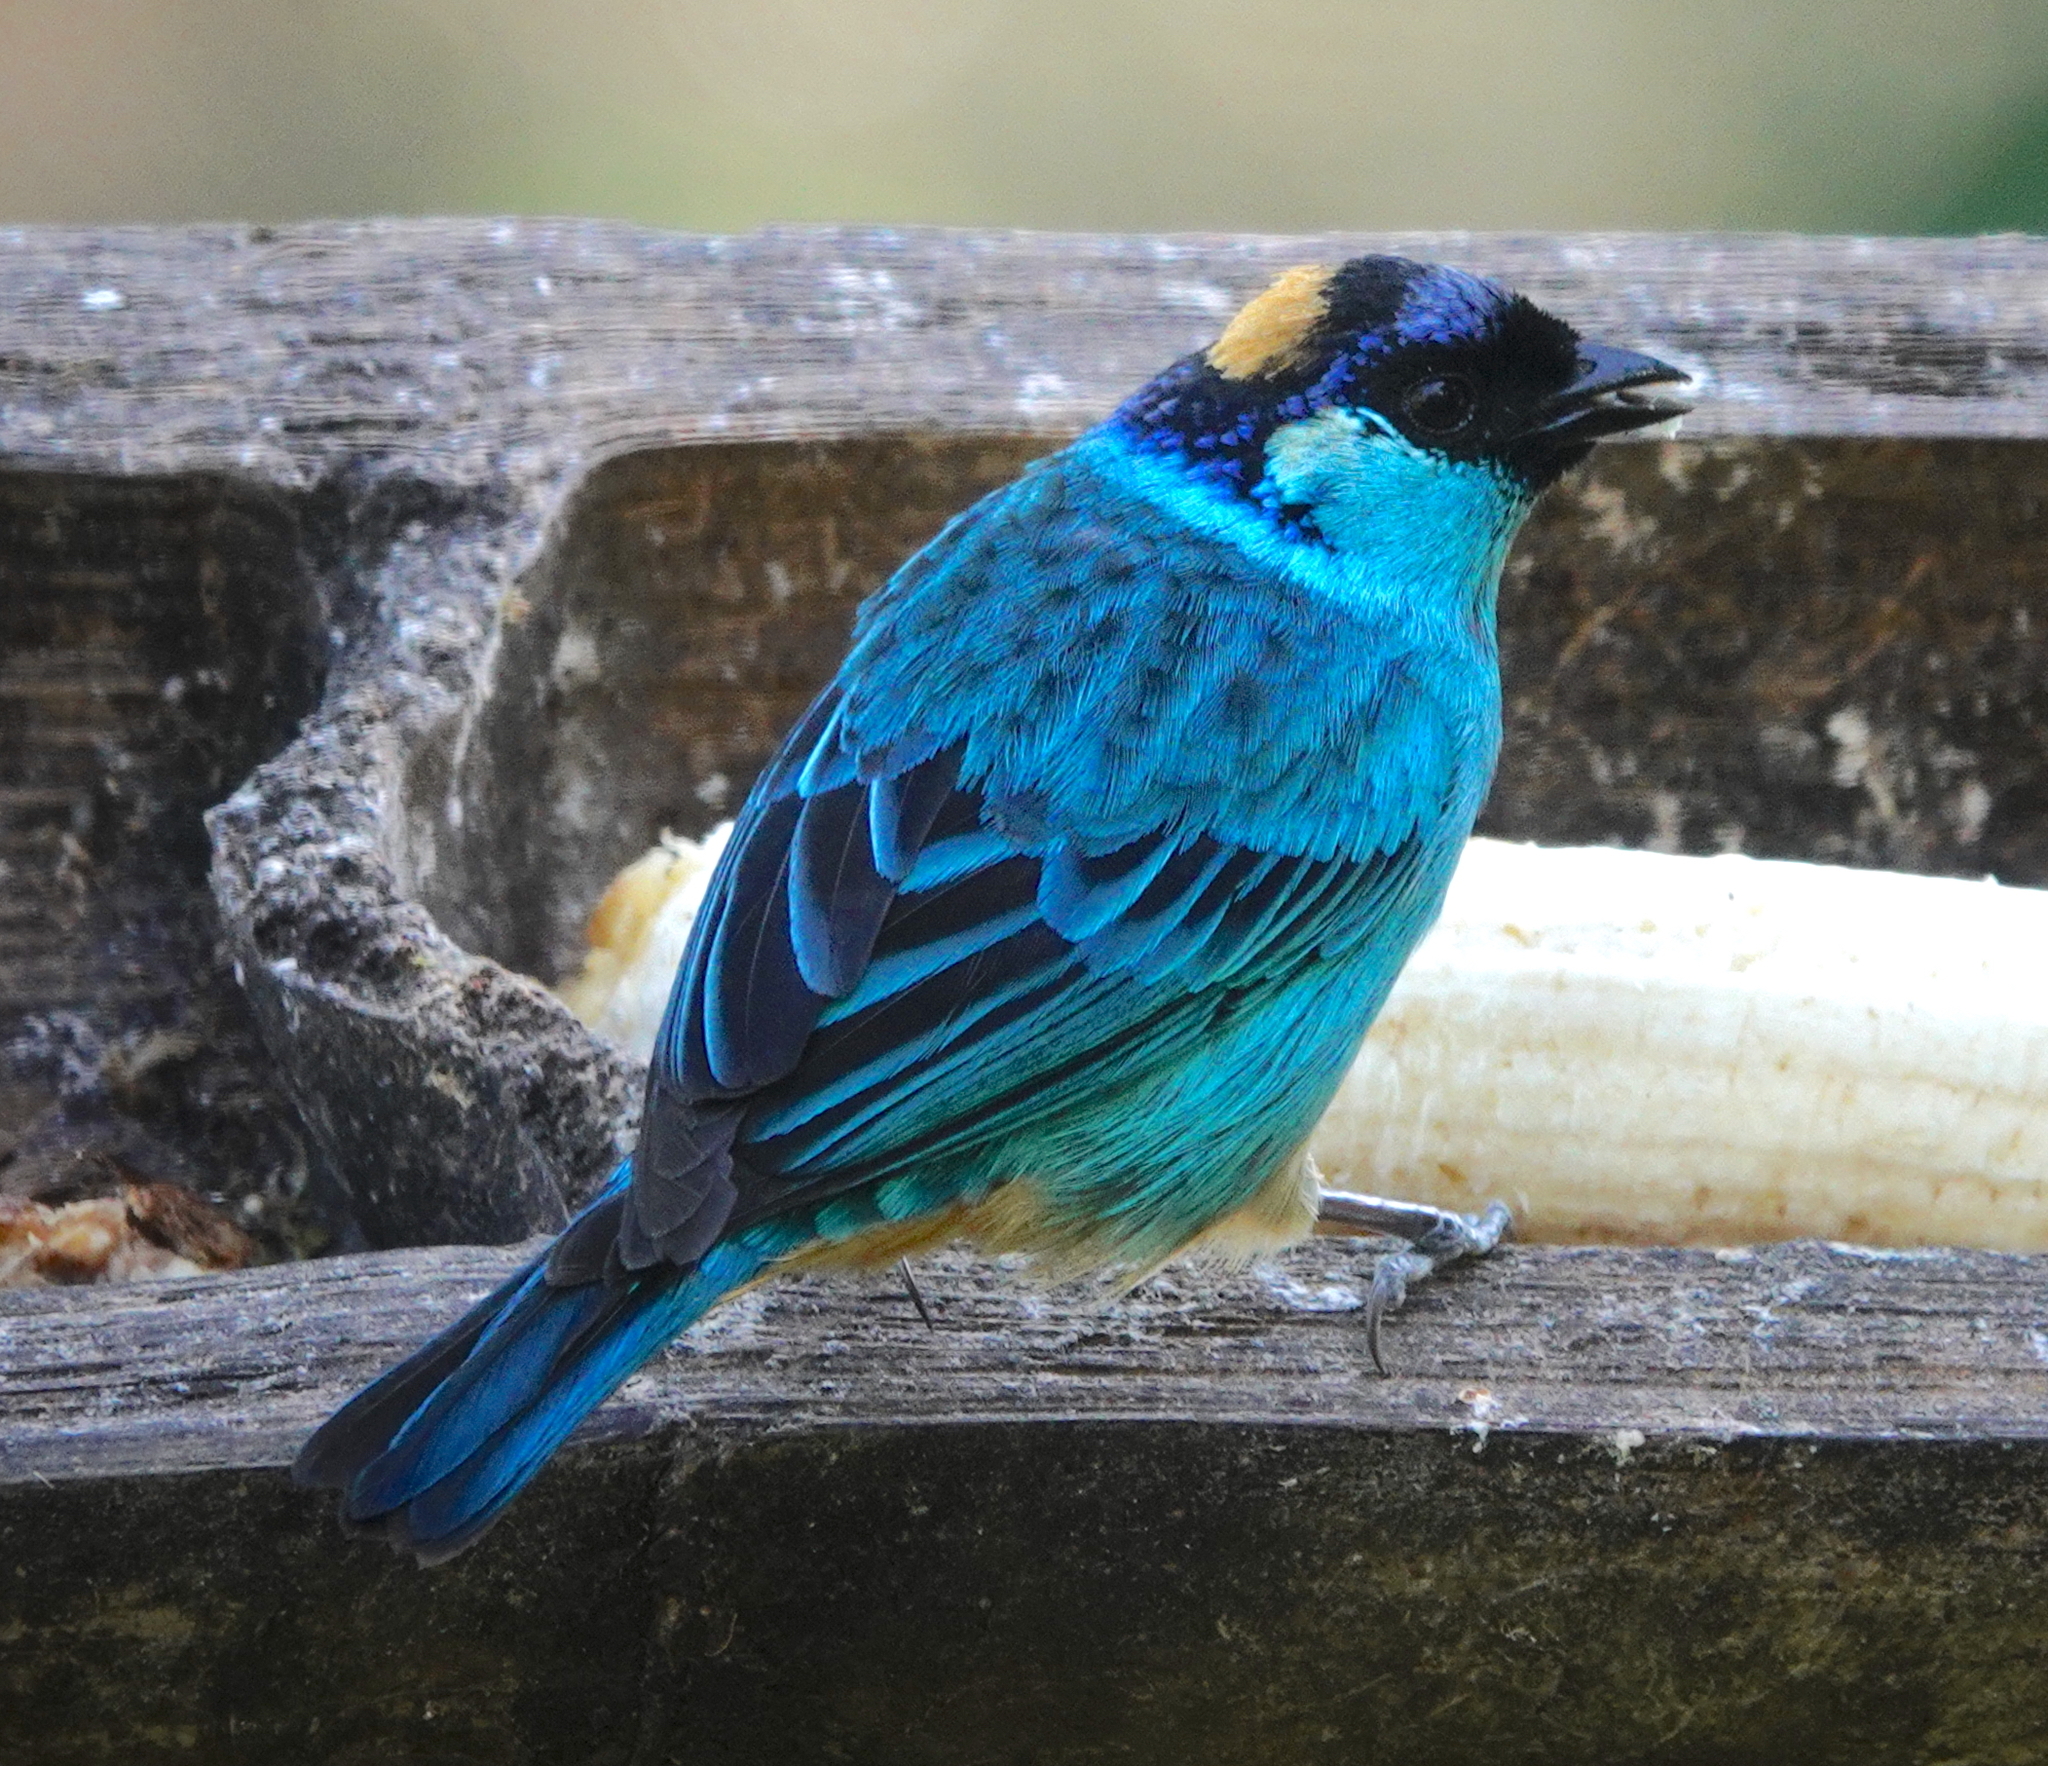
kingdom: Animalia
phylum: Chordata
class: Aves
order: Passeriformes
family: Thraupidae
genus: Chalcothraupis
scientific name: Chalcothraupis ruficervix
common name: Golden-naped tanager
